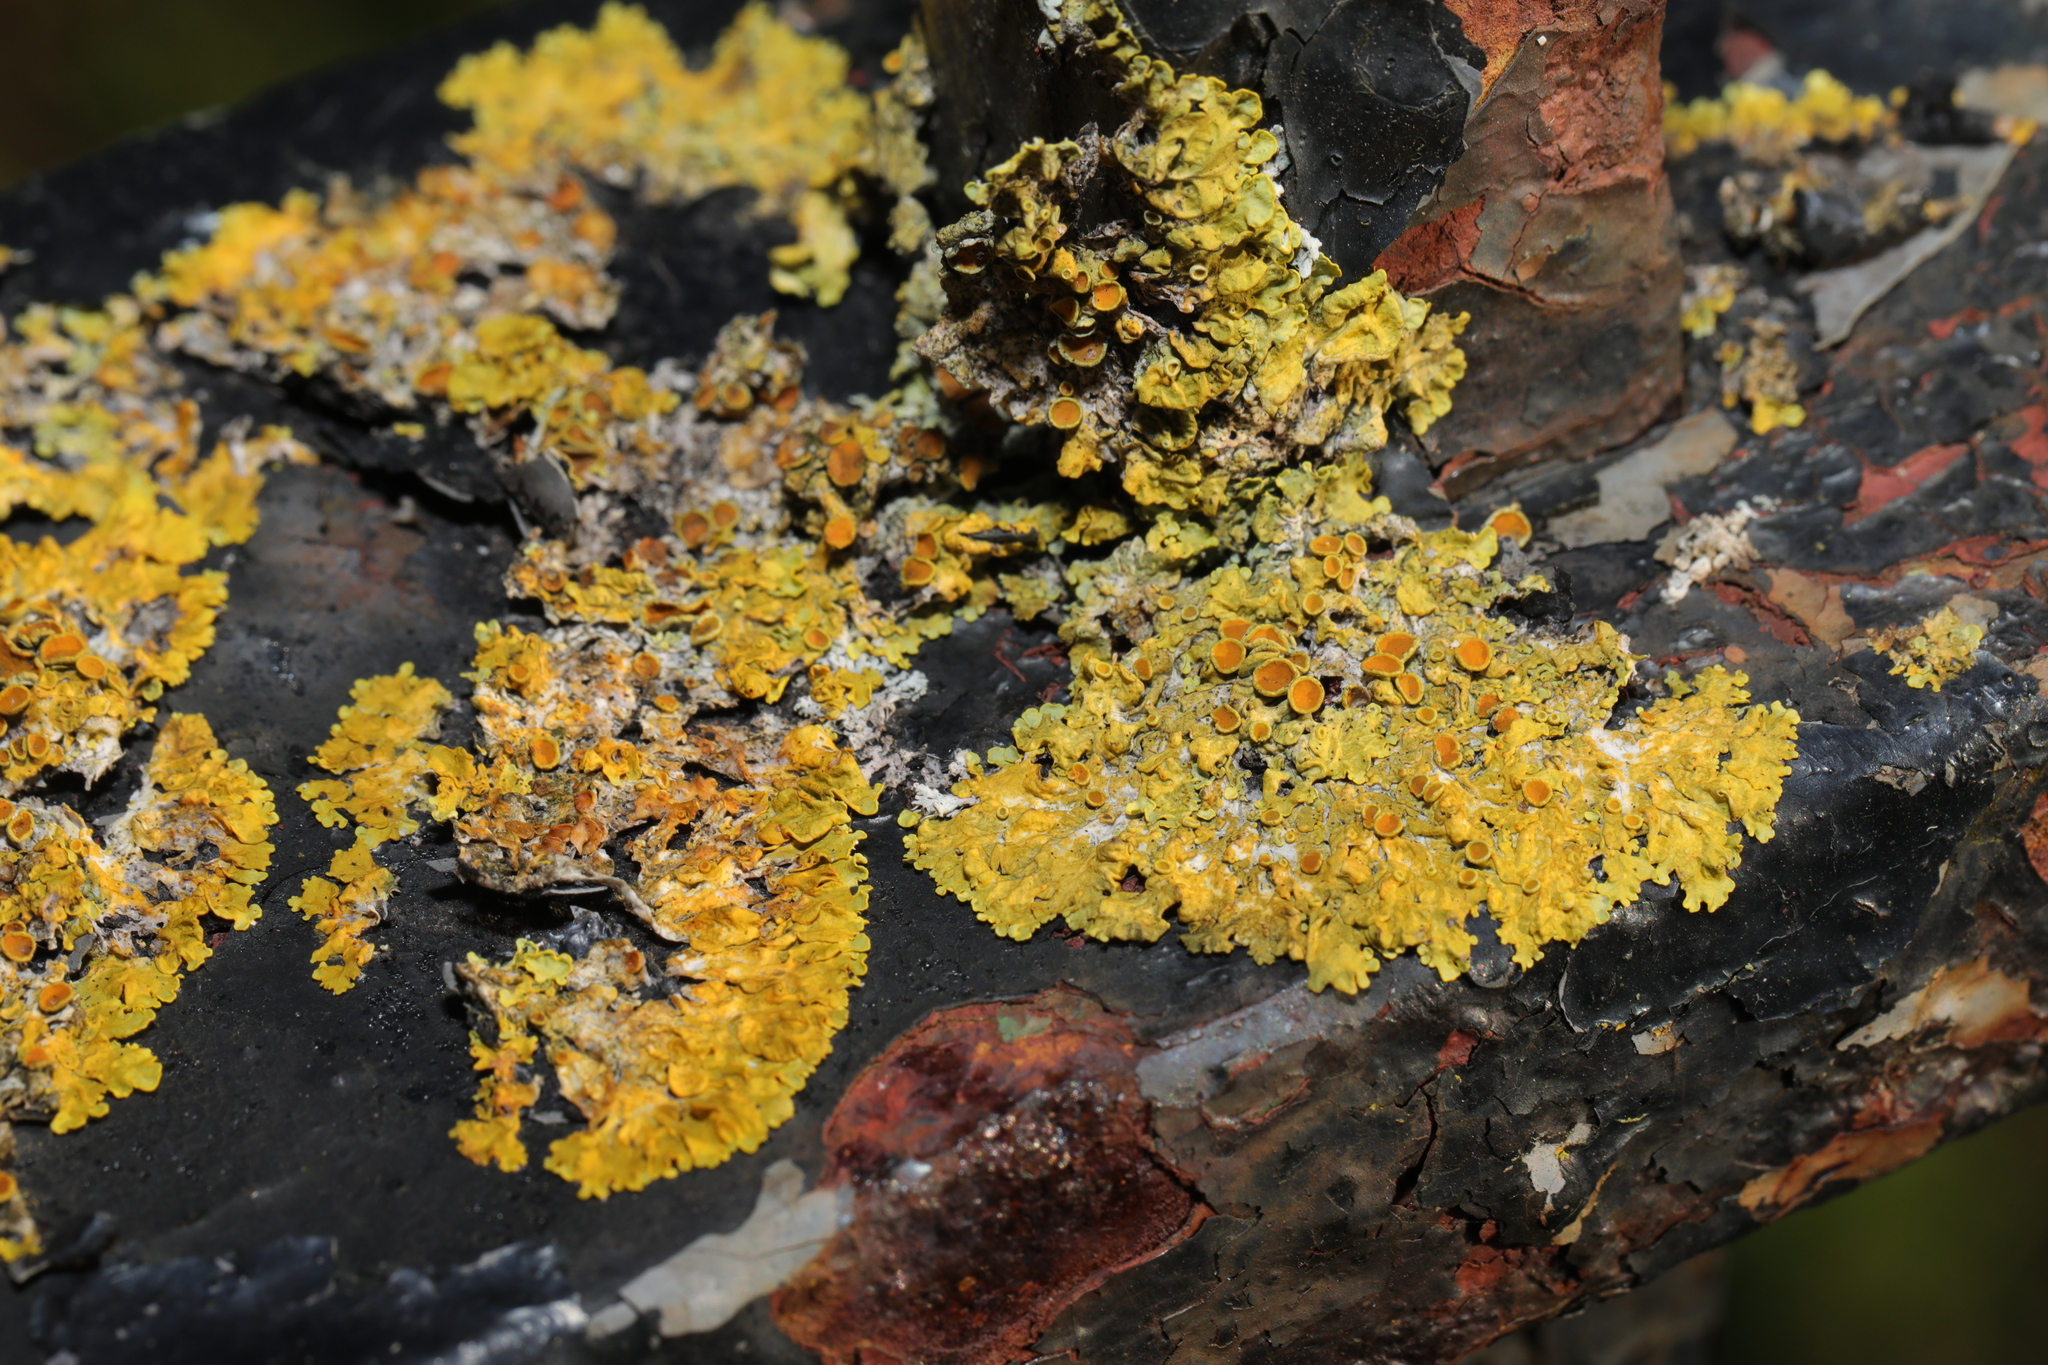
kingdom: Fungi
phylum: Ascomycota
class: Lecanoromycetes
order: Teloschistales
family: Teloschistaceae
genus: Xanthoria
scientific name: Xanthoria parietina
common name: Common orange lichen
